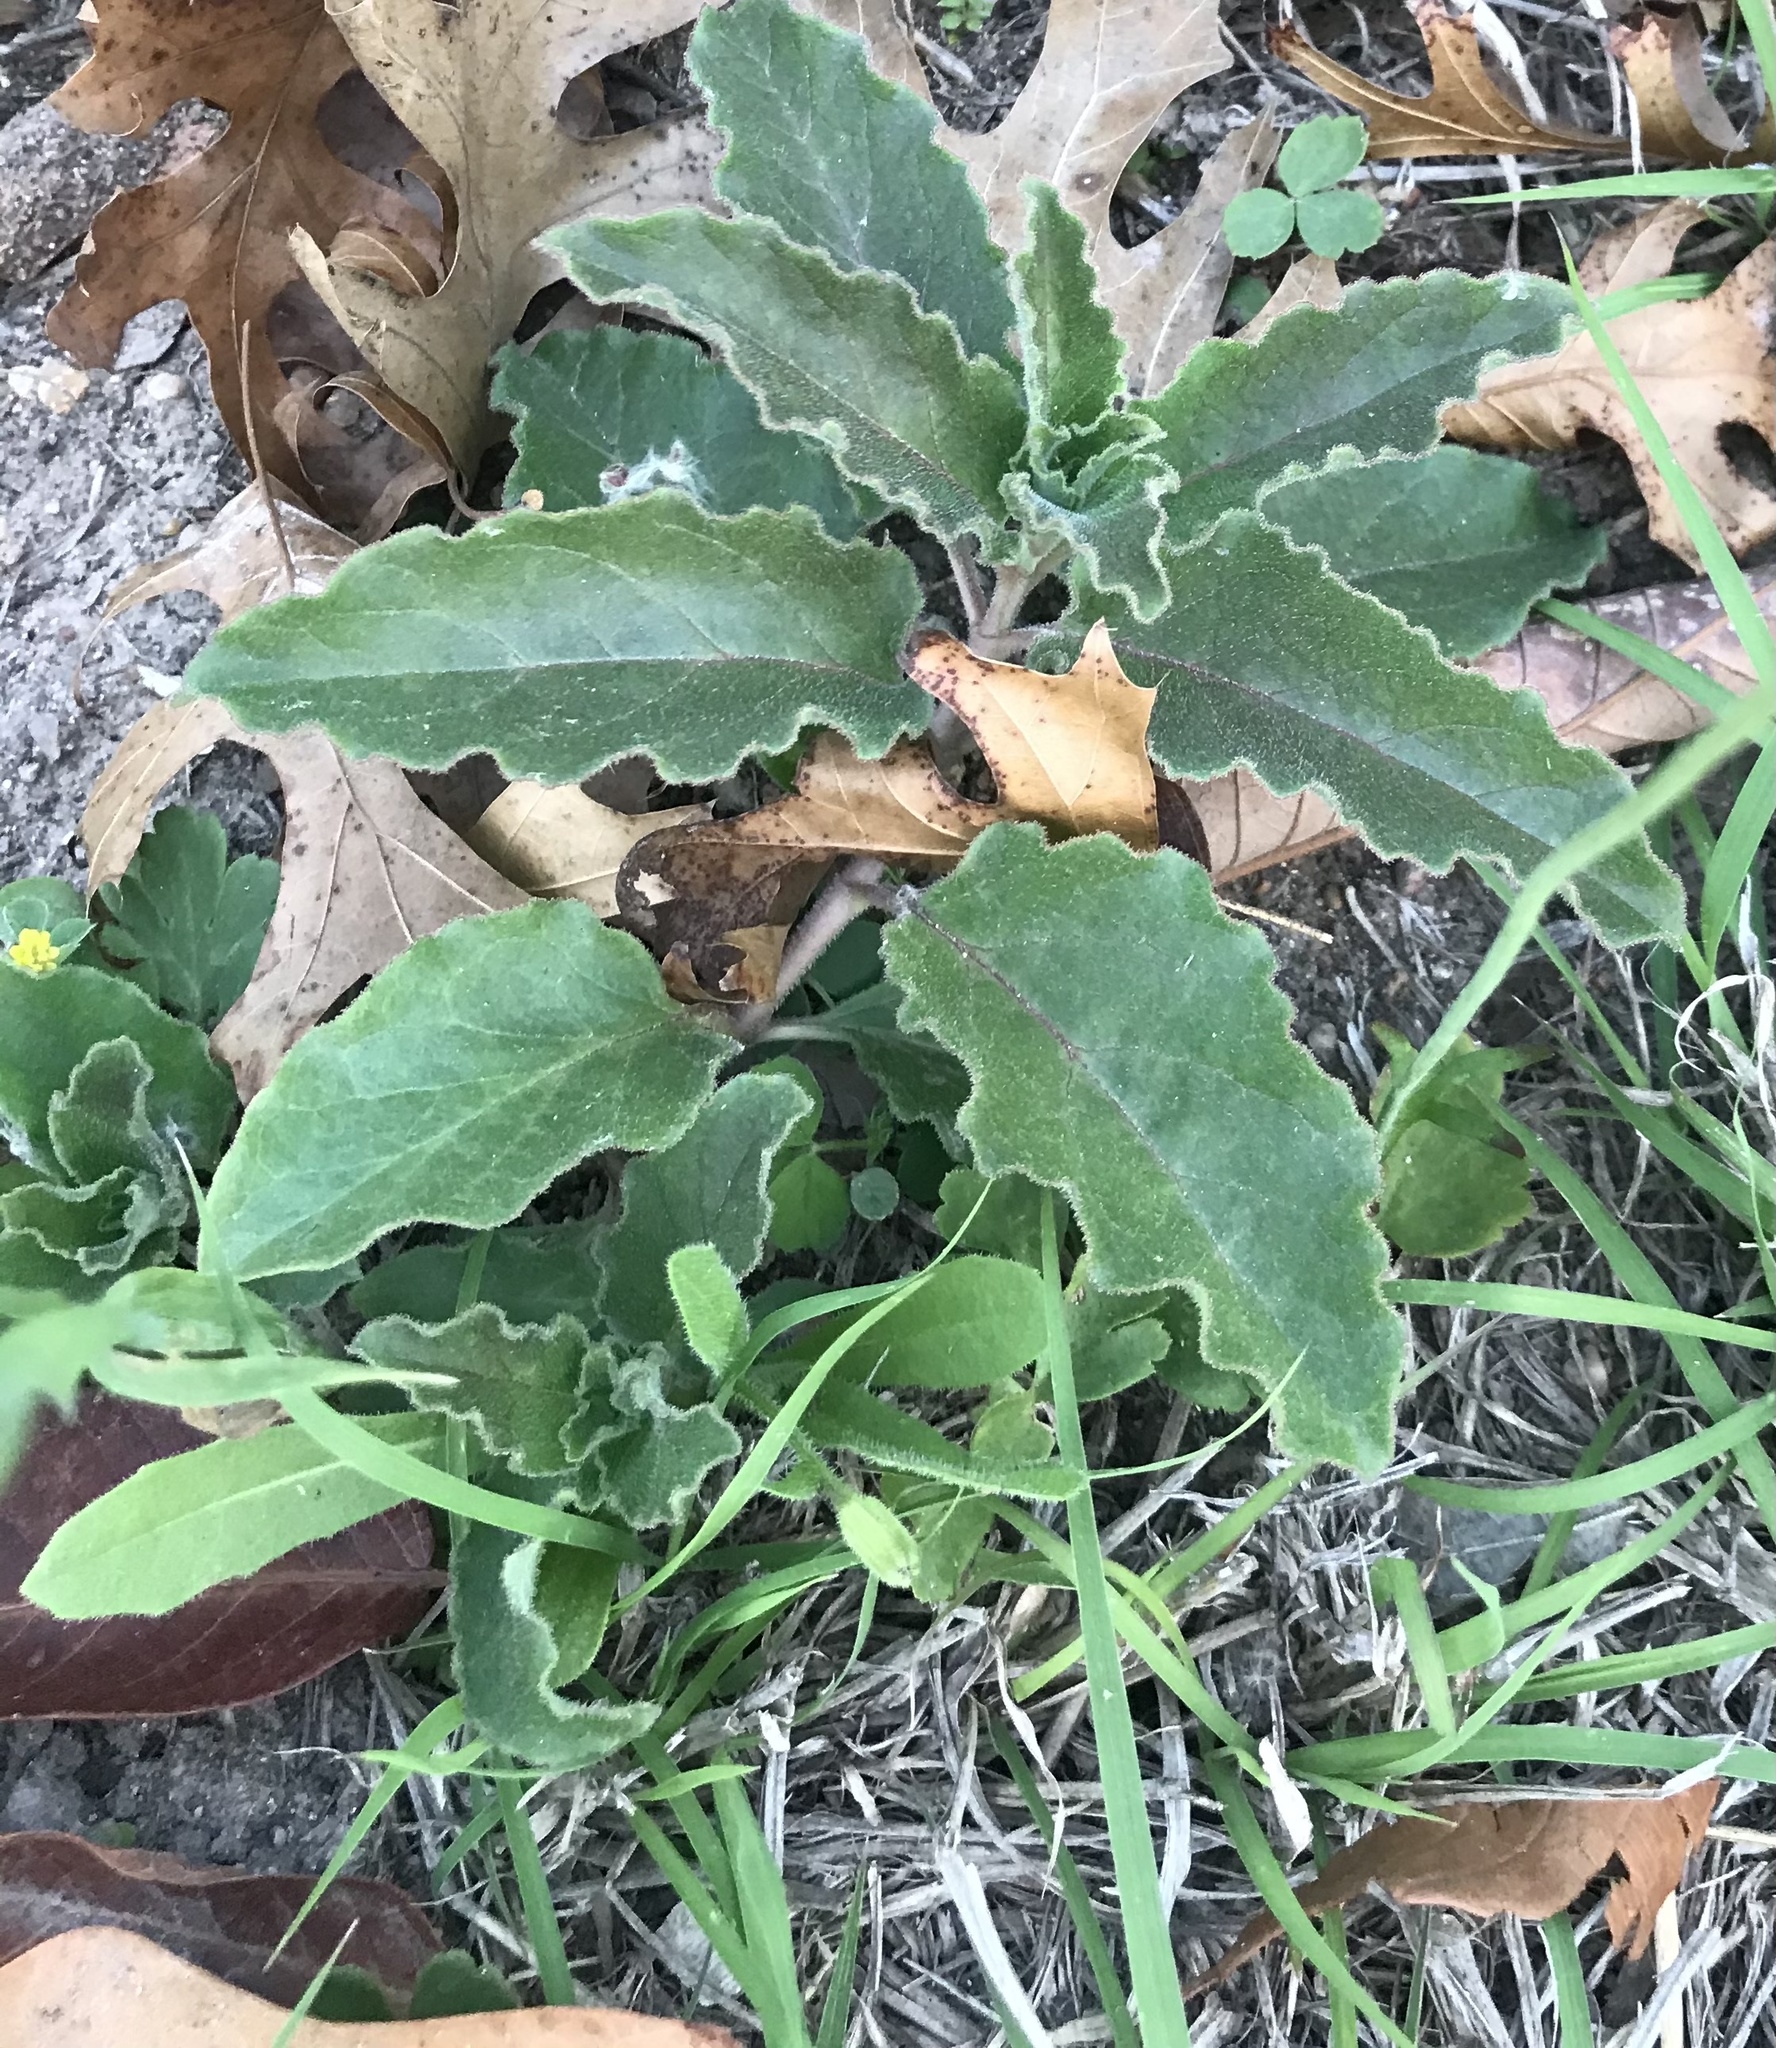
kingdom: Plantae
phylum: Tracheophyta
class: Magnoliopsida
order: Gentianales
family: Apocynaceae
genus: Asclepias
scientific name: Asclepias oenotheroides
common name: Zizotes milkweed
